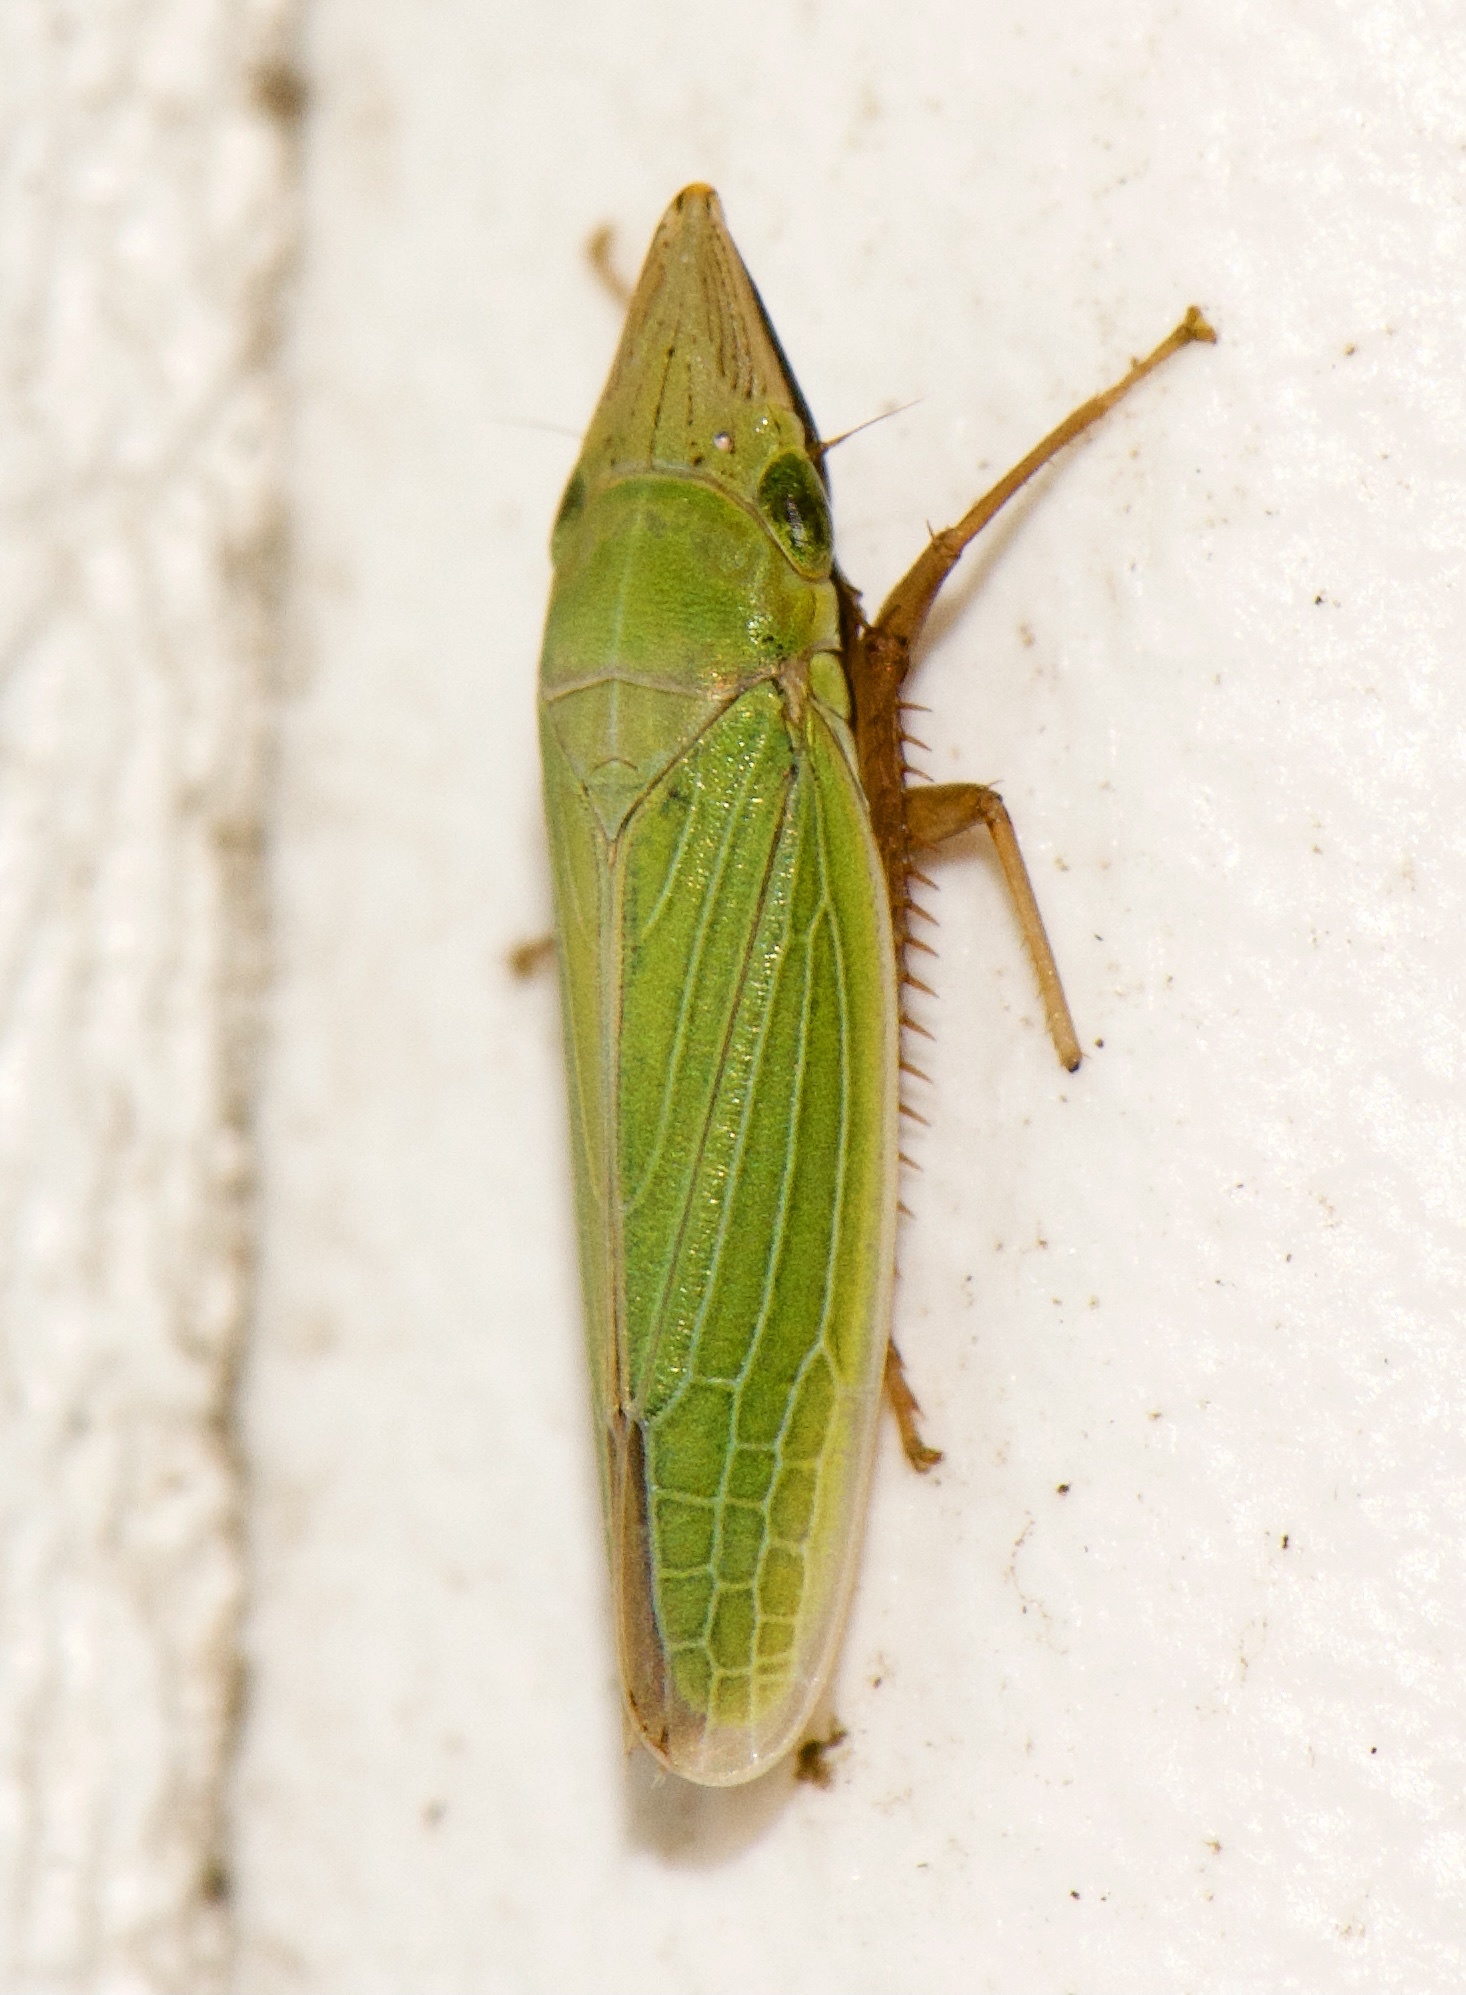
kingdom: Animalia
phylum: Arthropoda
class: Insecta
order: Hemiptera
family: Cicadellidae
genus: Draeculacephala
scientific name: Draeculacephala antica
